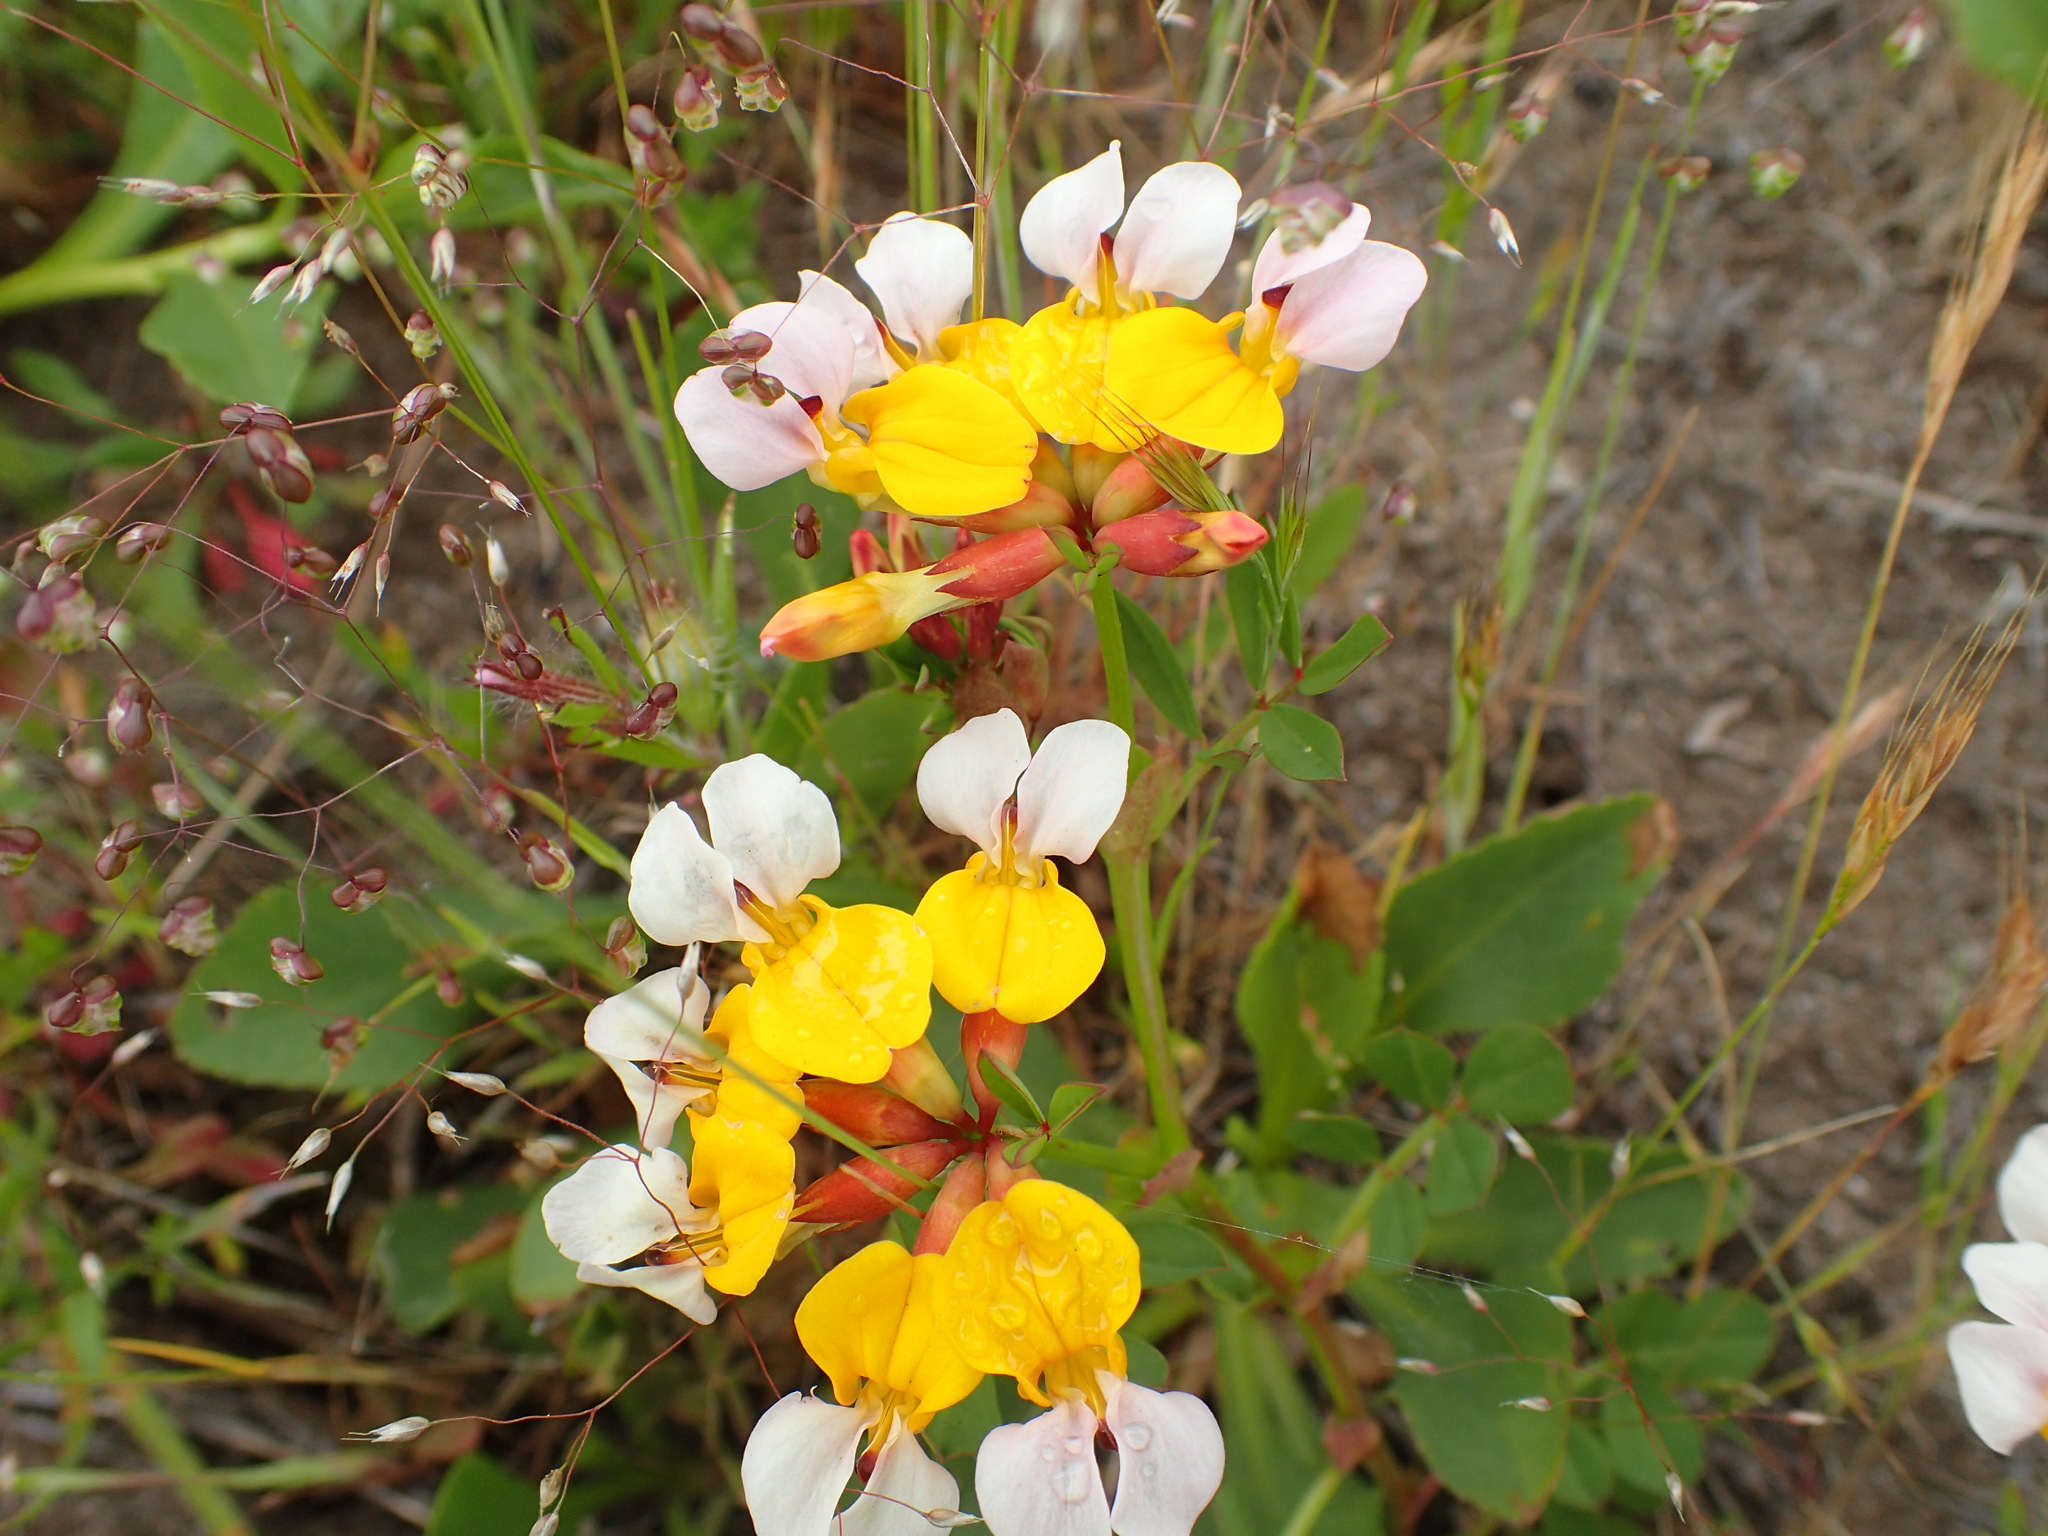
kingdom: Plantae
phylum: Tracheophyta
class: Magnoliopsida
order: Fabales
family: Fabaceae
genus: Hosackia
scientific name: Hosackia gracilis
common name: Seaside bird's-foot lotus
